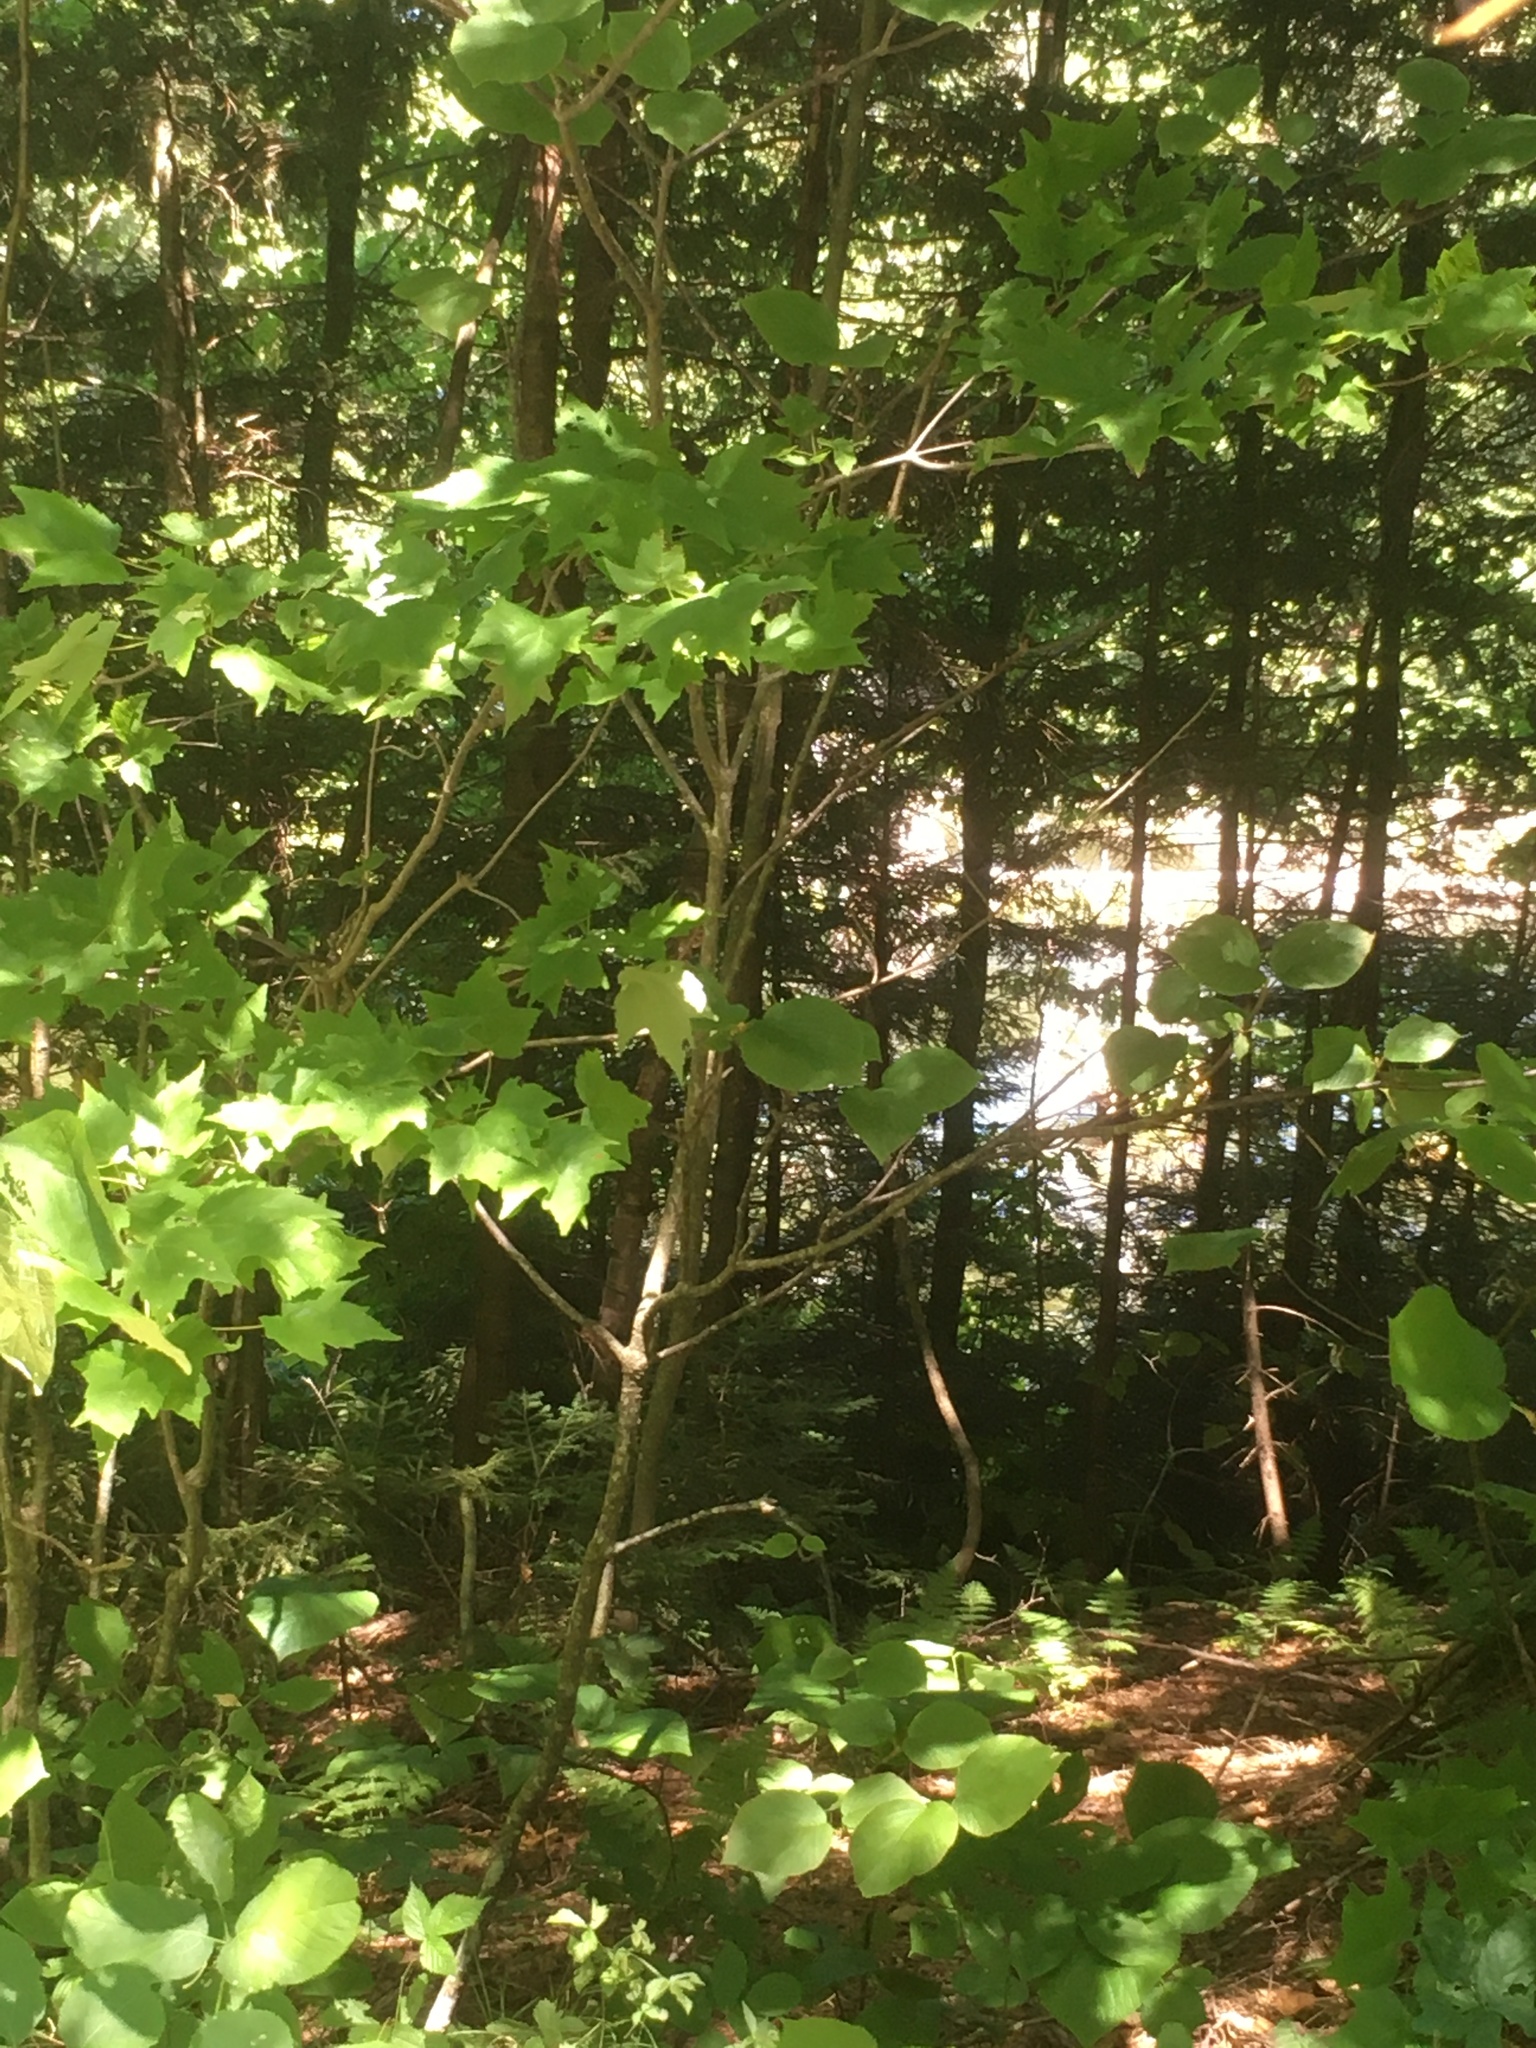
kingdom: Plantae
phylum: Tracheophyta
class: Magnoliopsida
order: Sapindales
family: Sapindaceae
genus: Acer
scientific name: Acer rubrum
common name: Red maple
